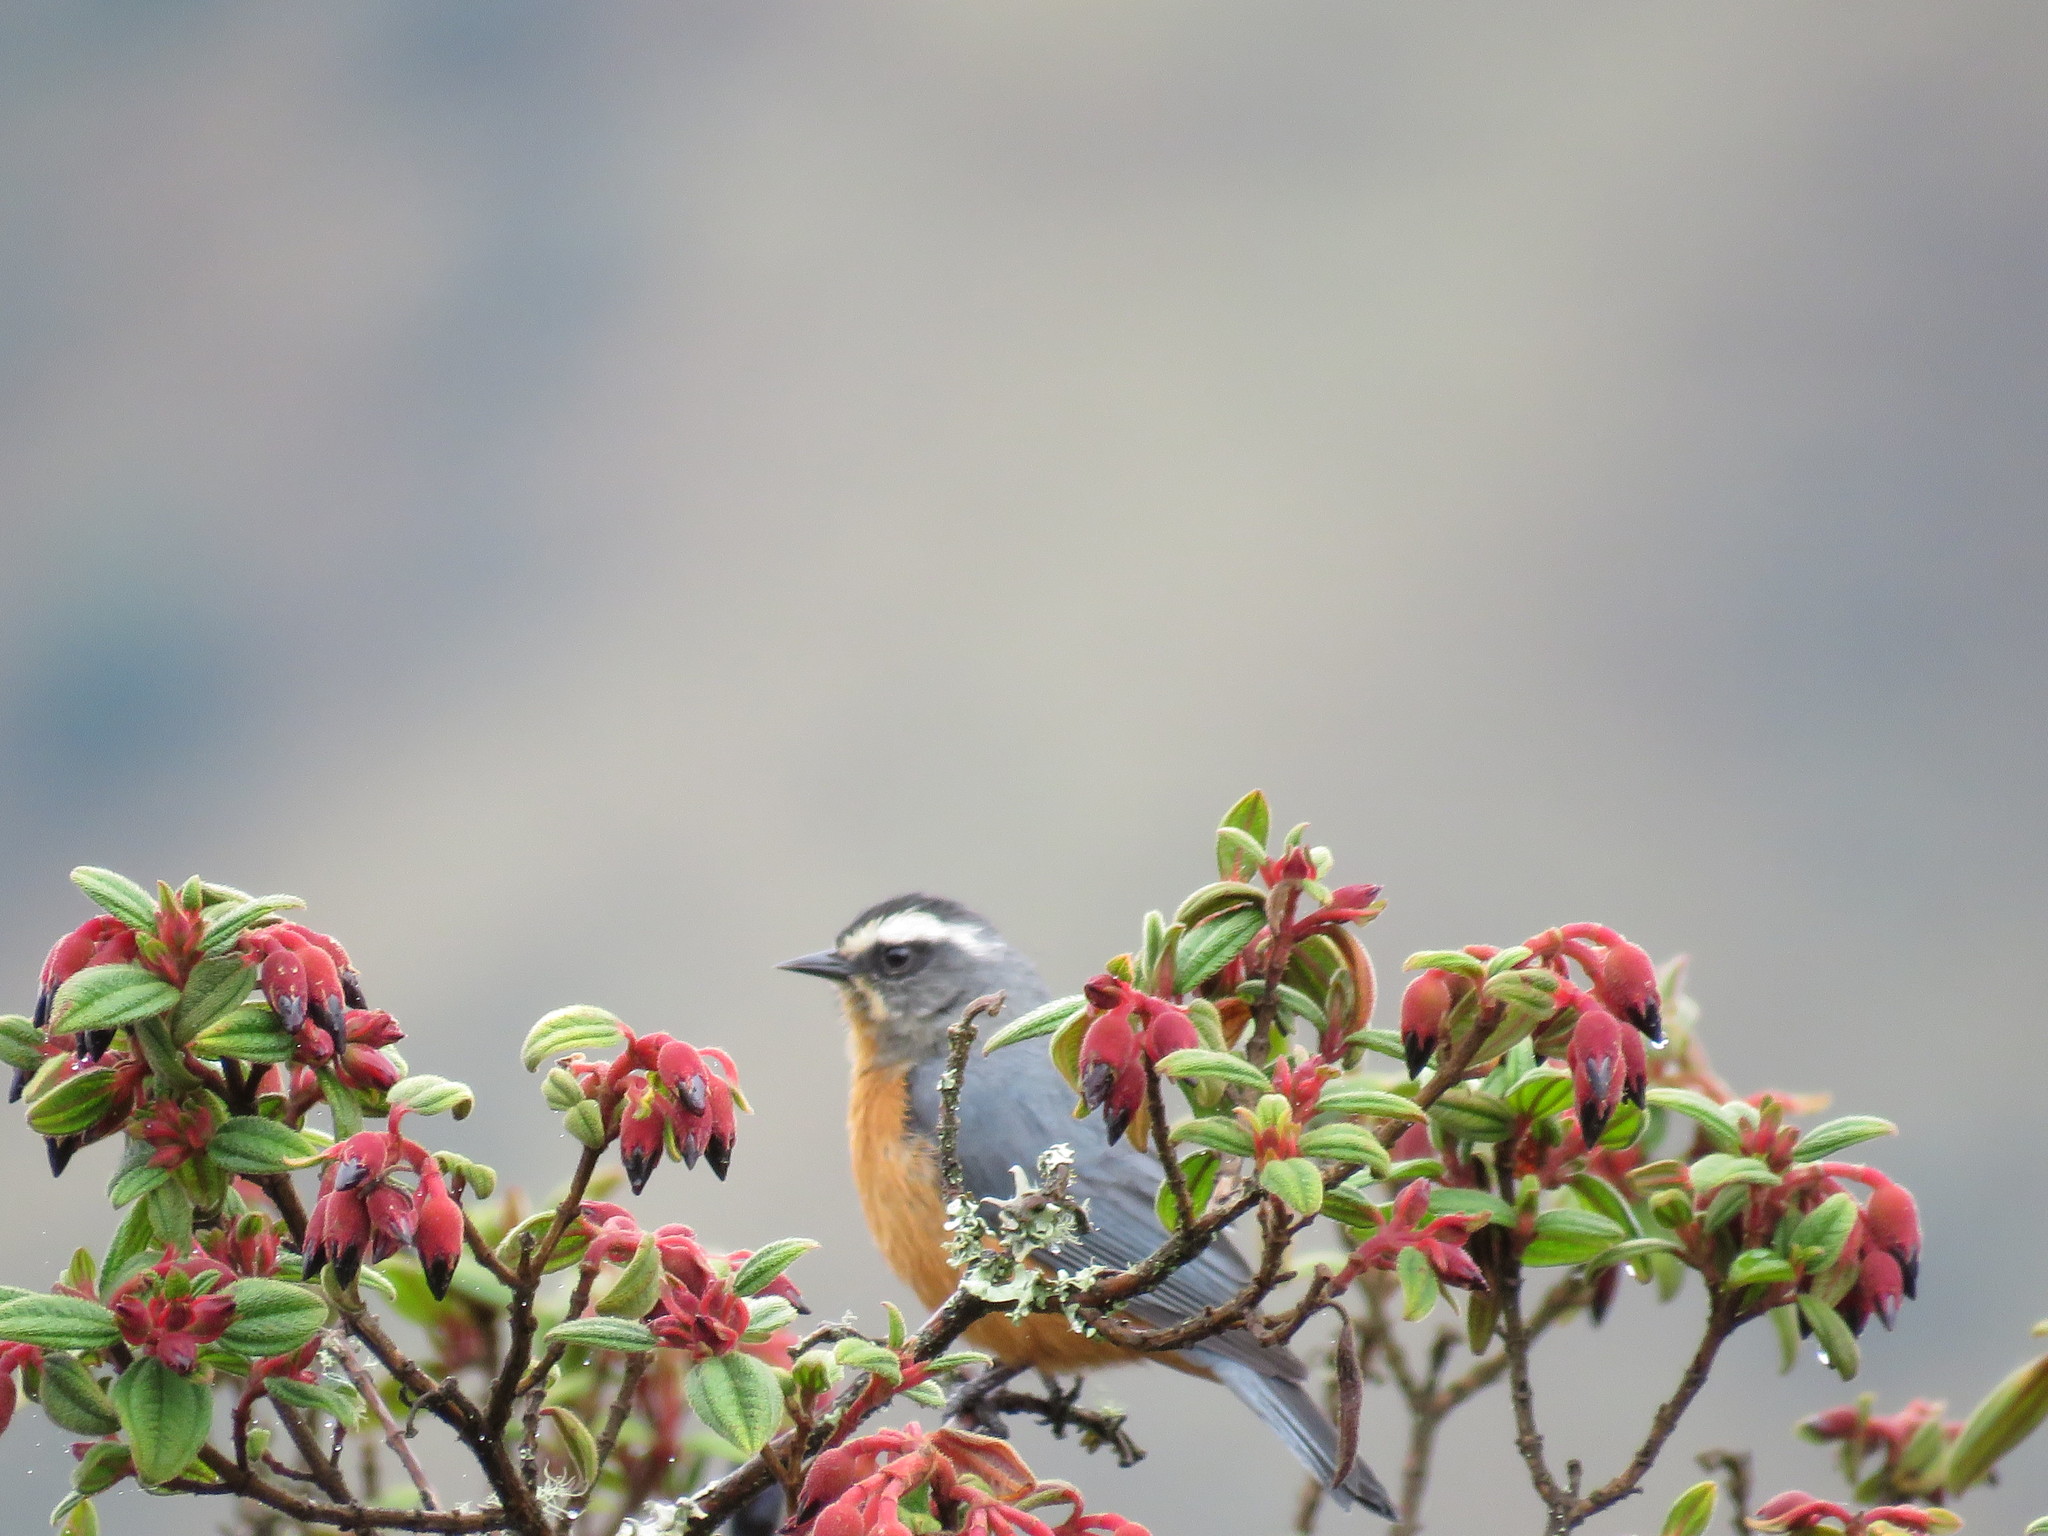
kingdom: Animalia
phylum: Chordata
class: Aves
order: Passeriformes
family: Thraupidae
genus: Conirostrum
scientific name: Conirostrum ferrugineiventre
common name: White-browed conebill
